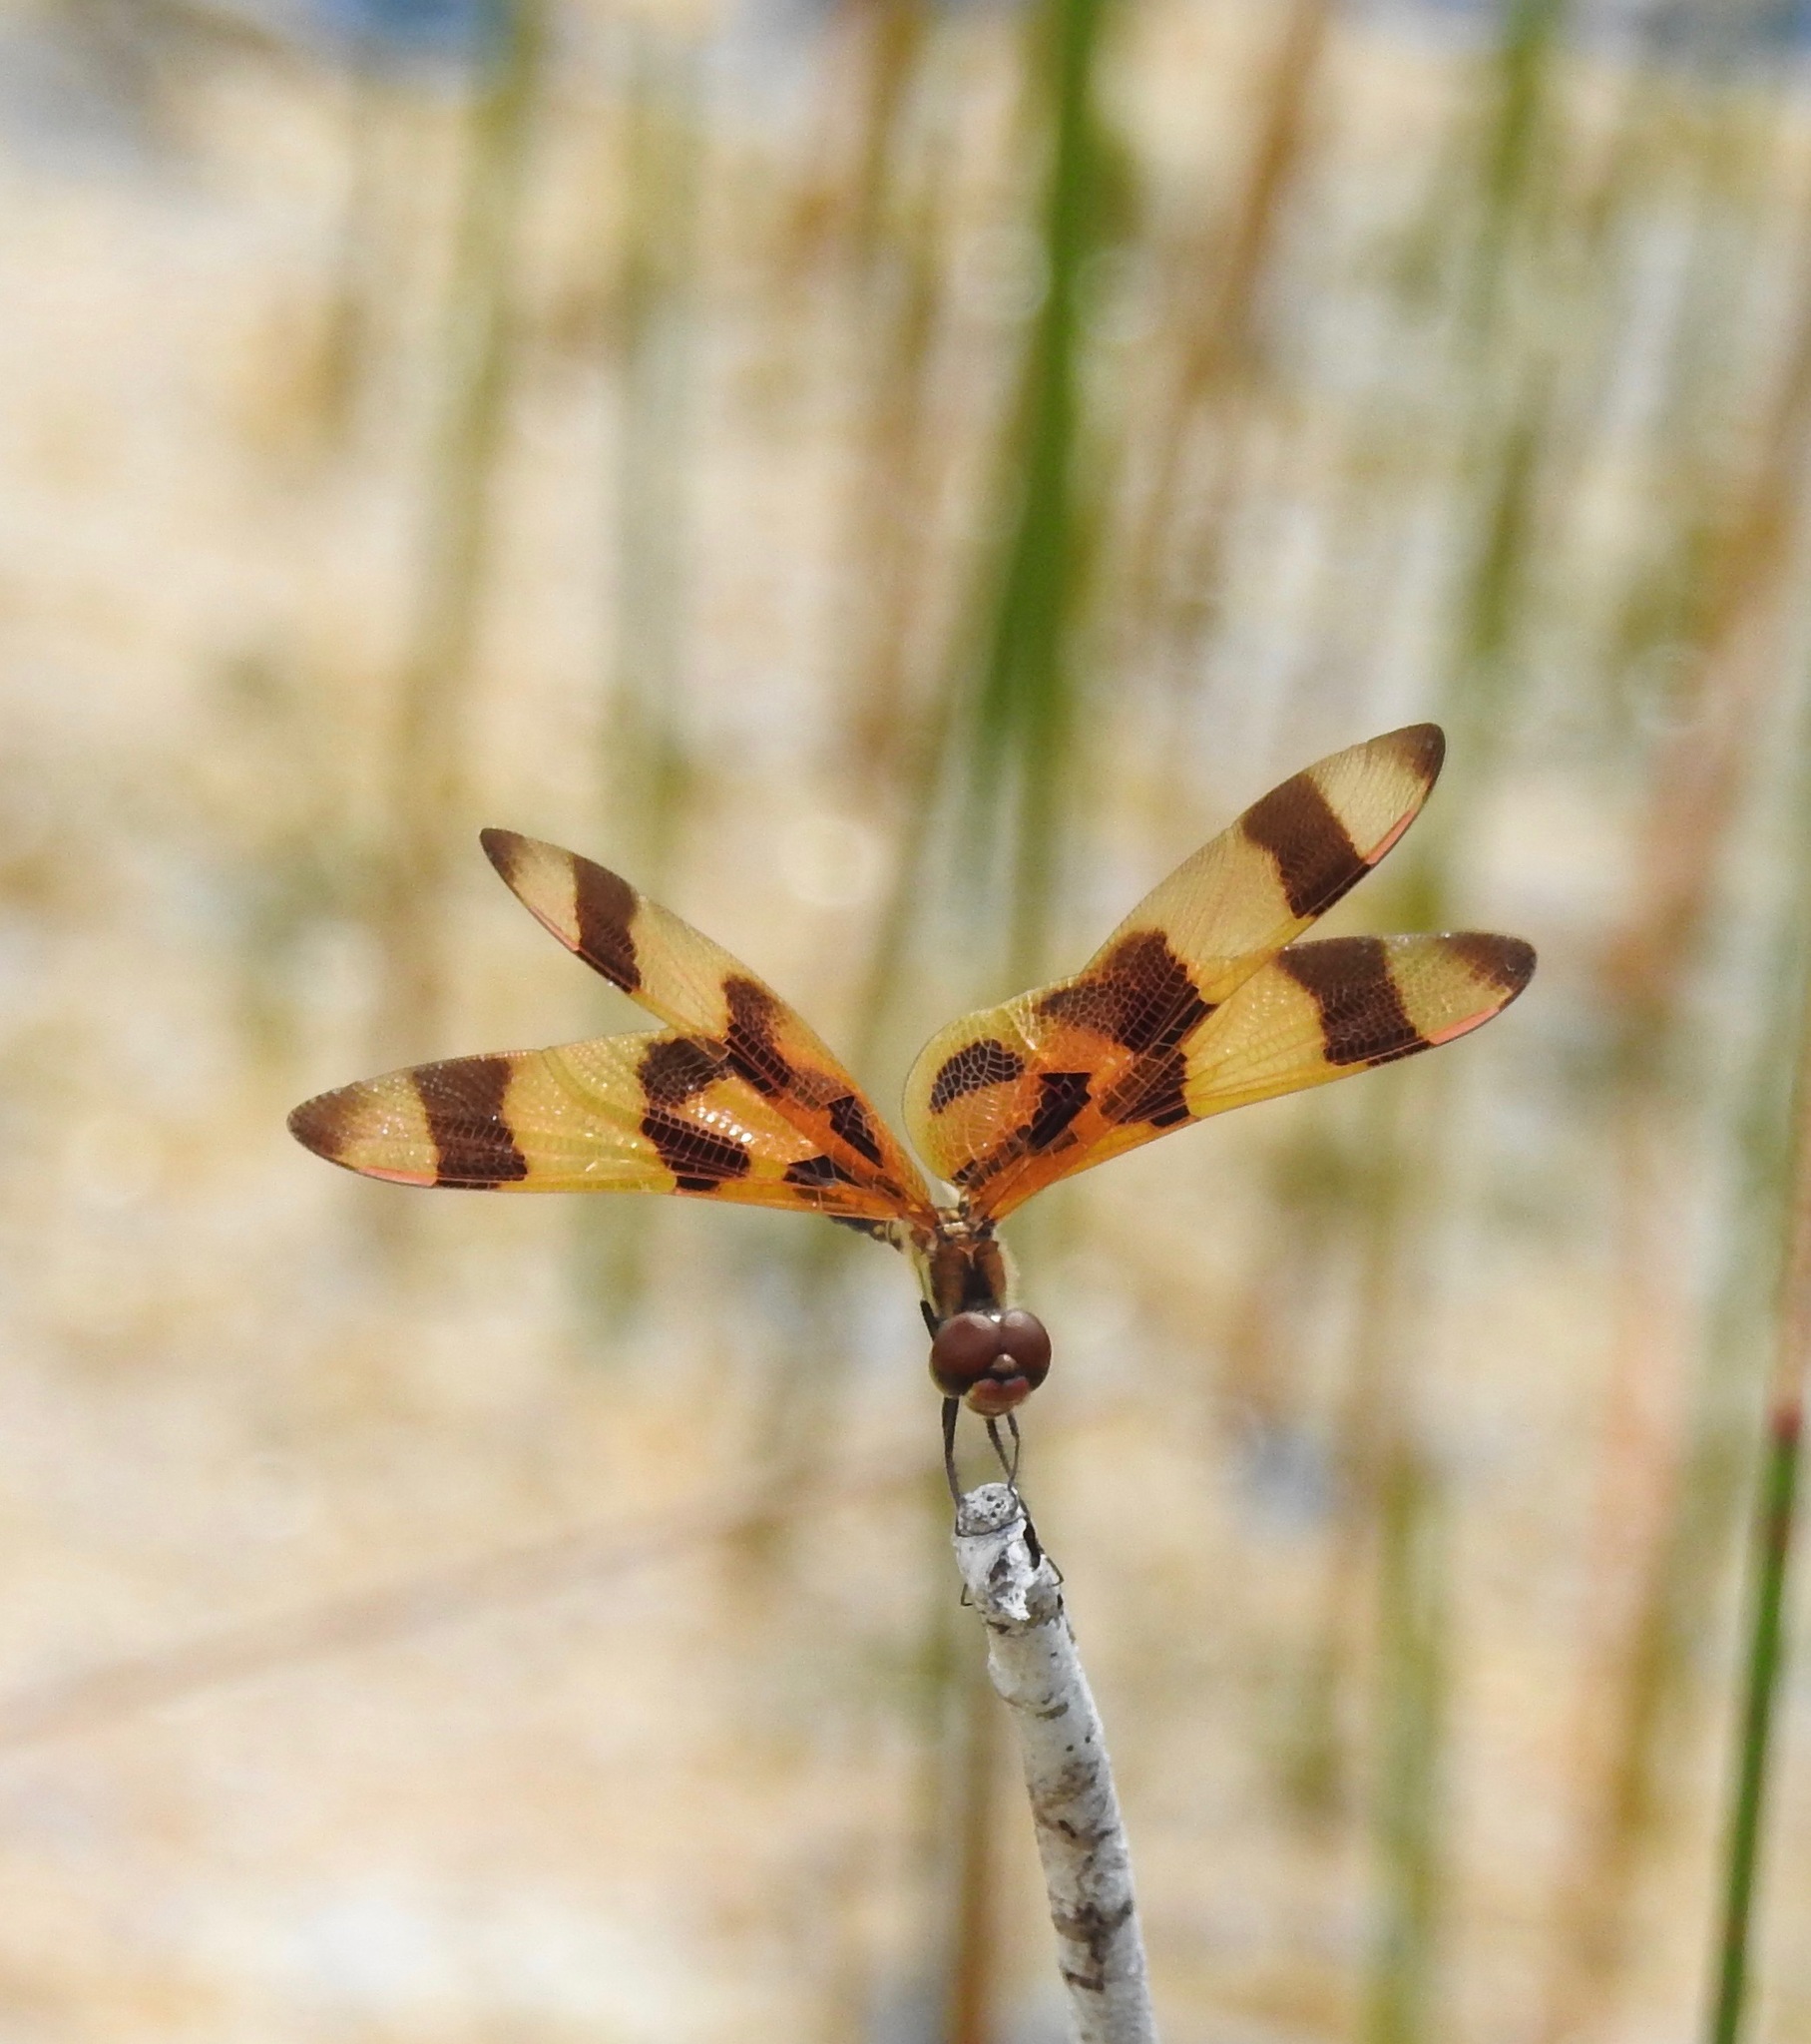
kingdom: Animalia
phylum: Arthropoda
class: Insecta
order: Odonata
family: Libellulidae
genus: Celithemis
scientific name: Celithemis eponina
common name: Halloween pennant
